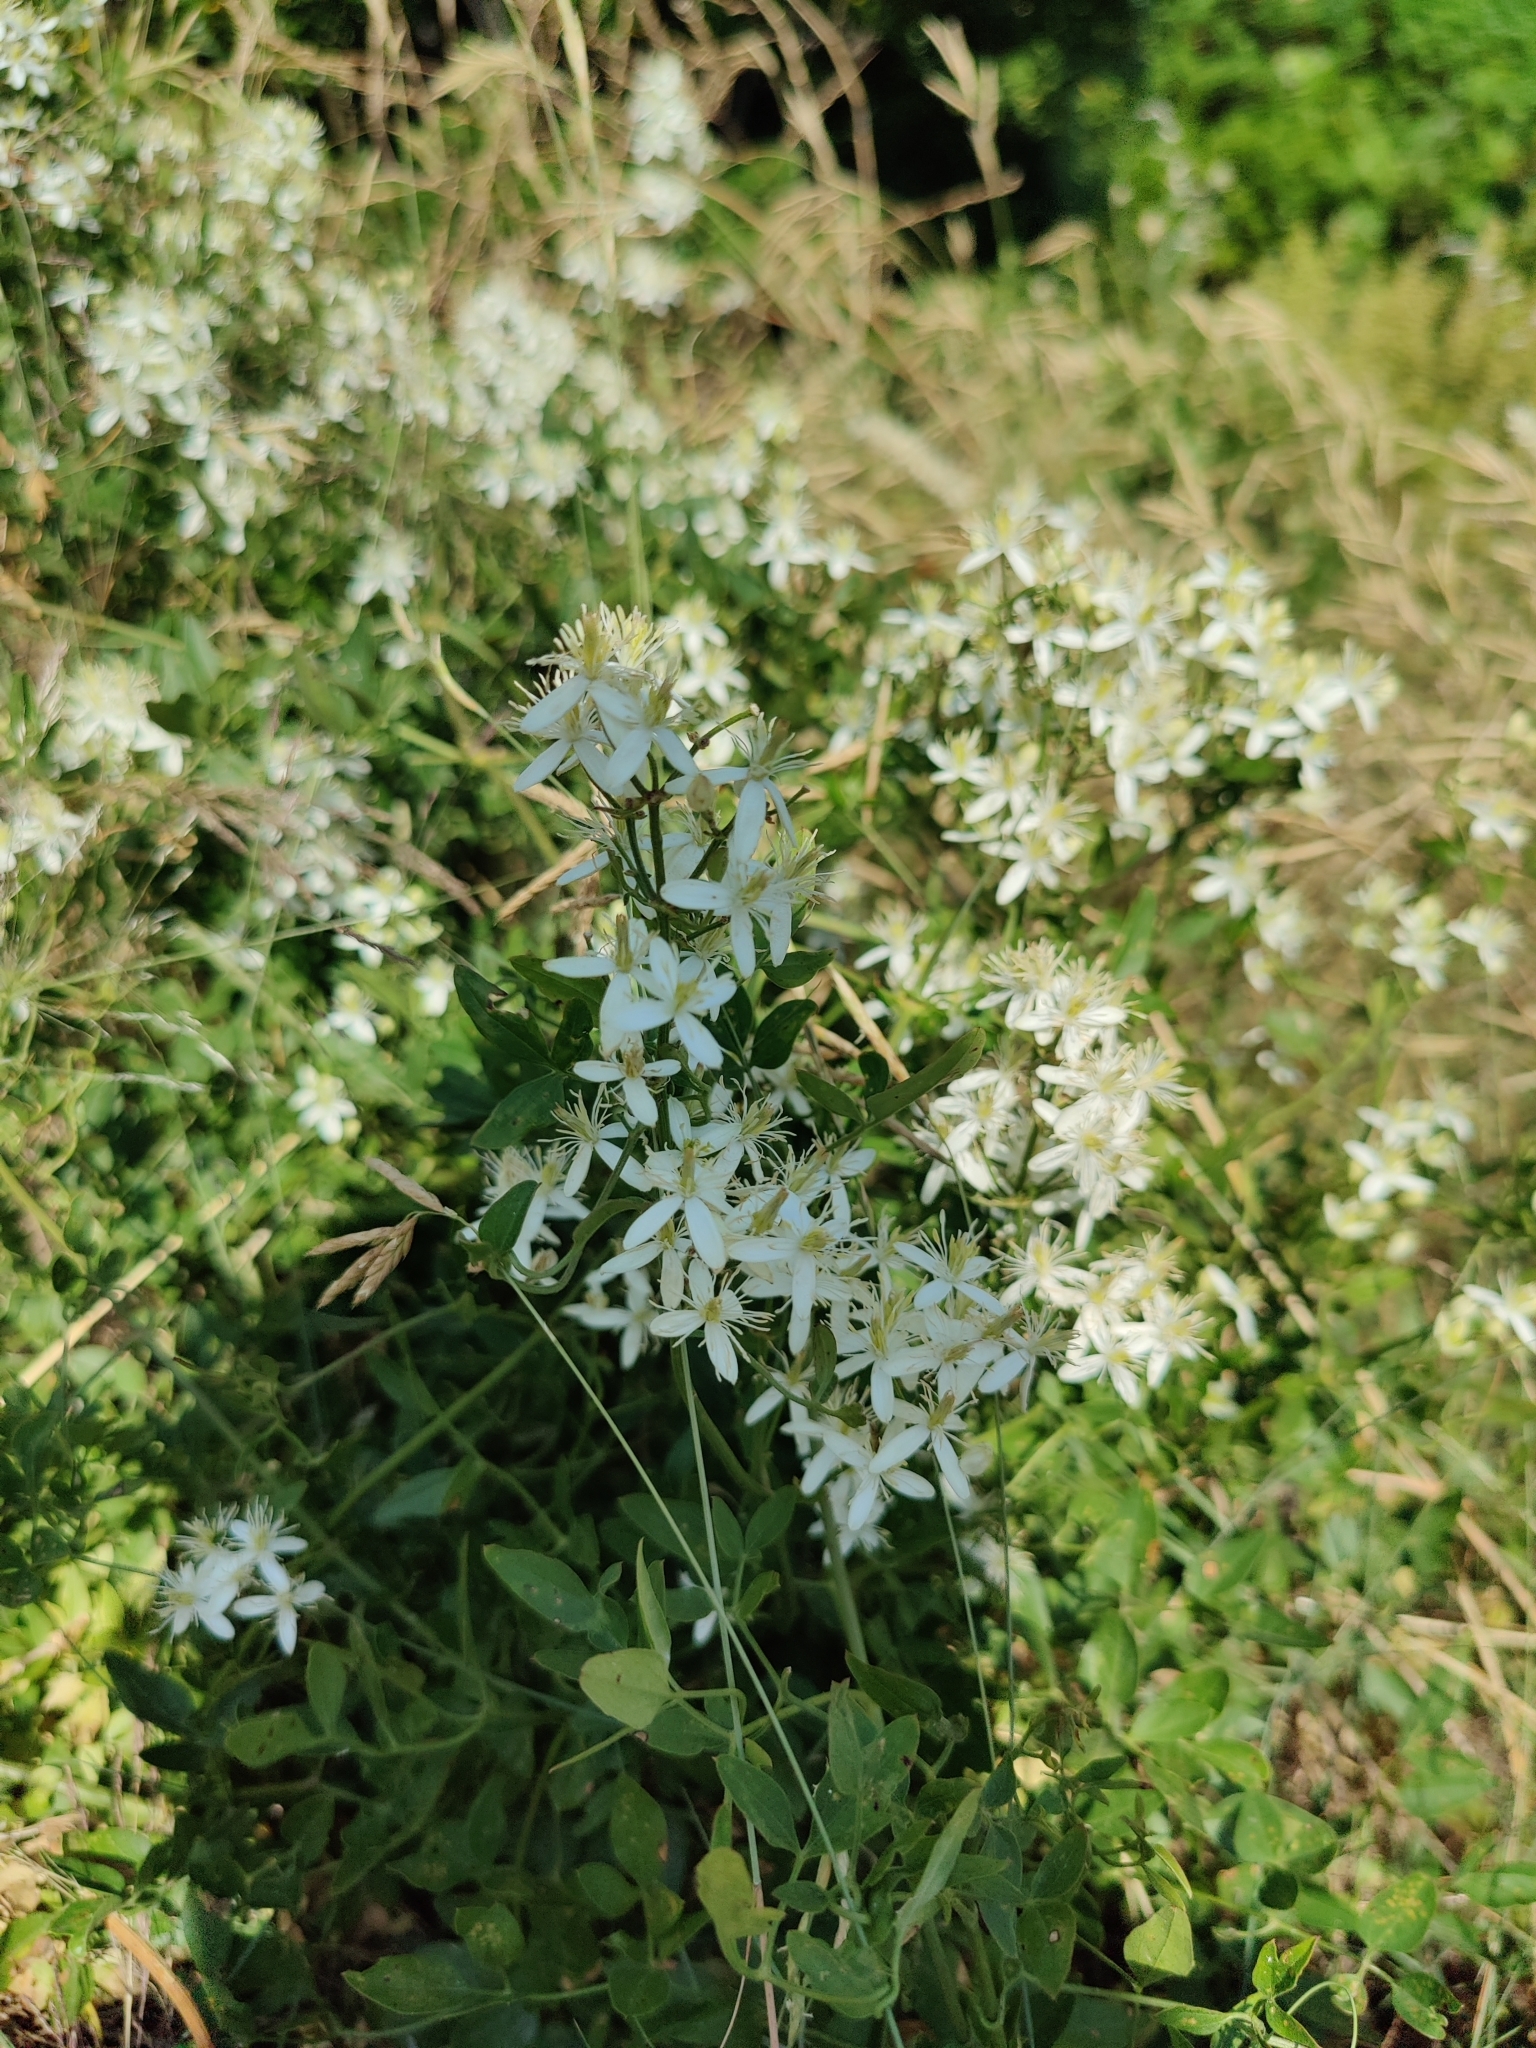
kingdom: Plantae
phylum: Tracheophyta
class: Magnoliopsida
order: Ranunculales
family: Ranunculaceae
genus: Clematis
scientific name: Clematis flammula
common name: Virgin's-bower
